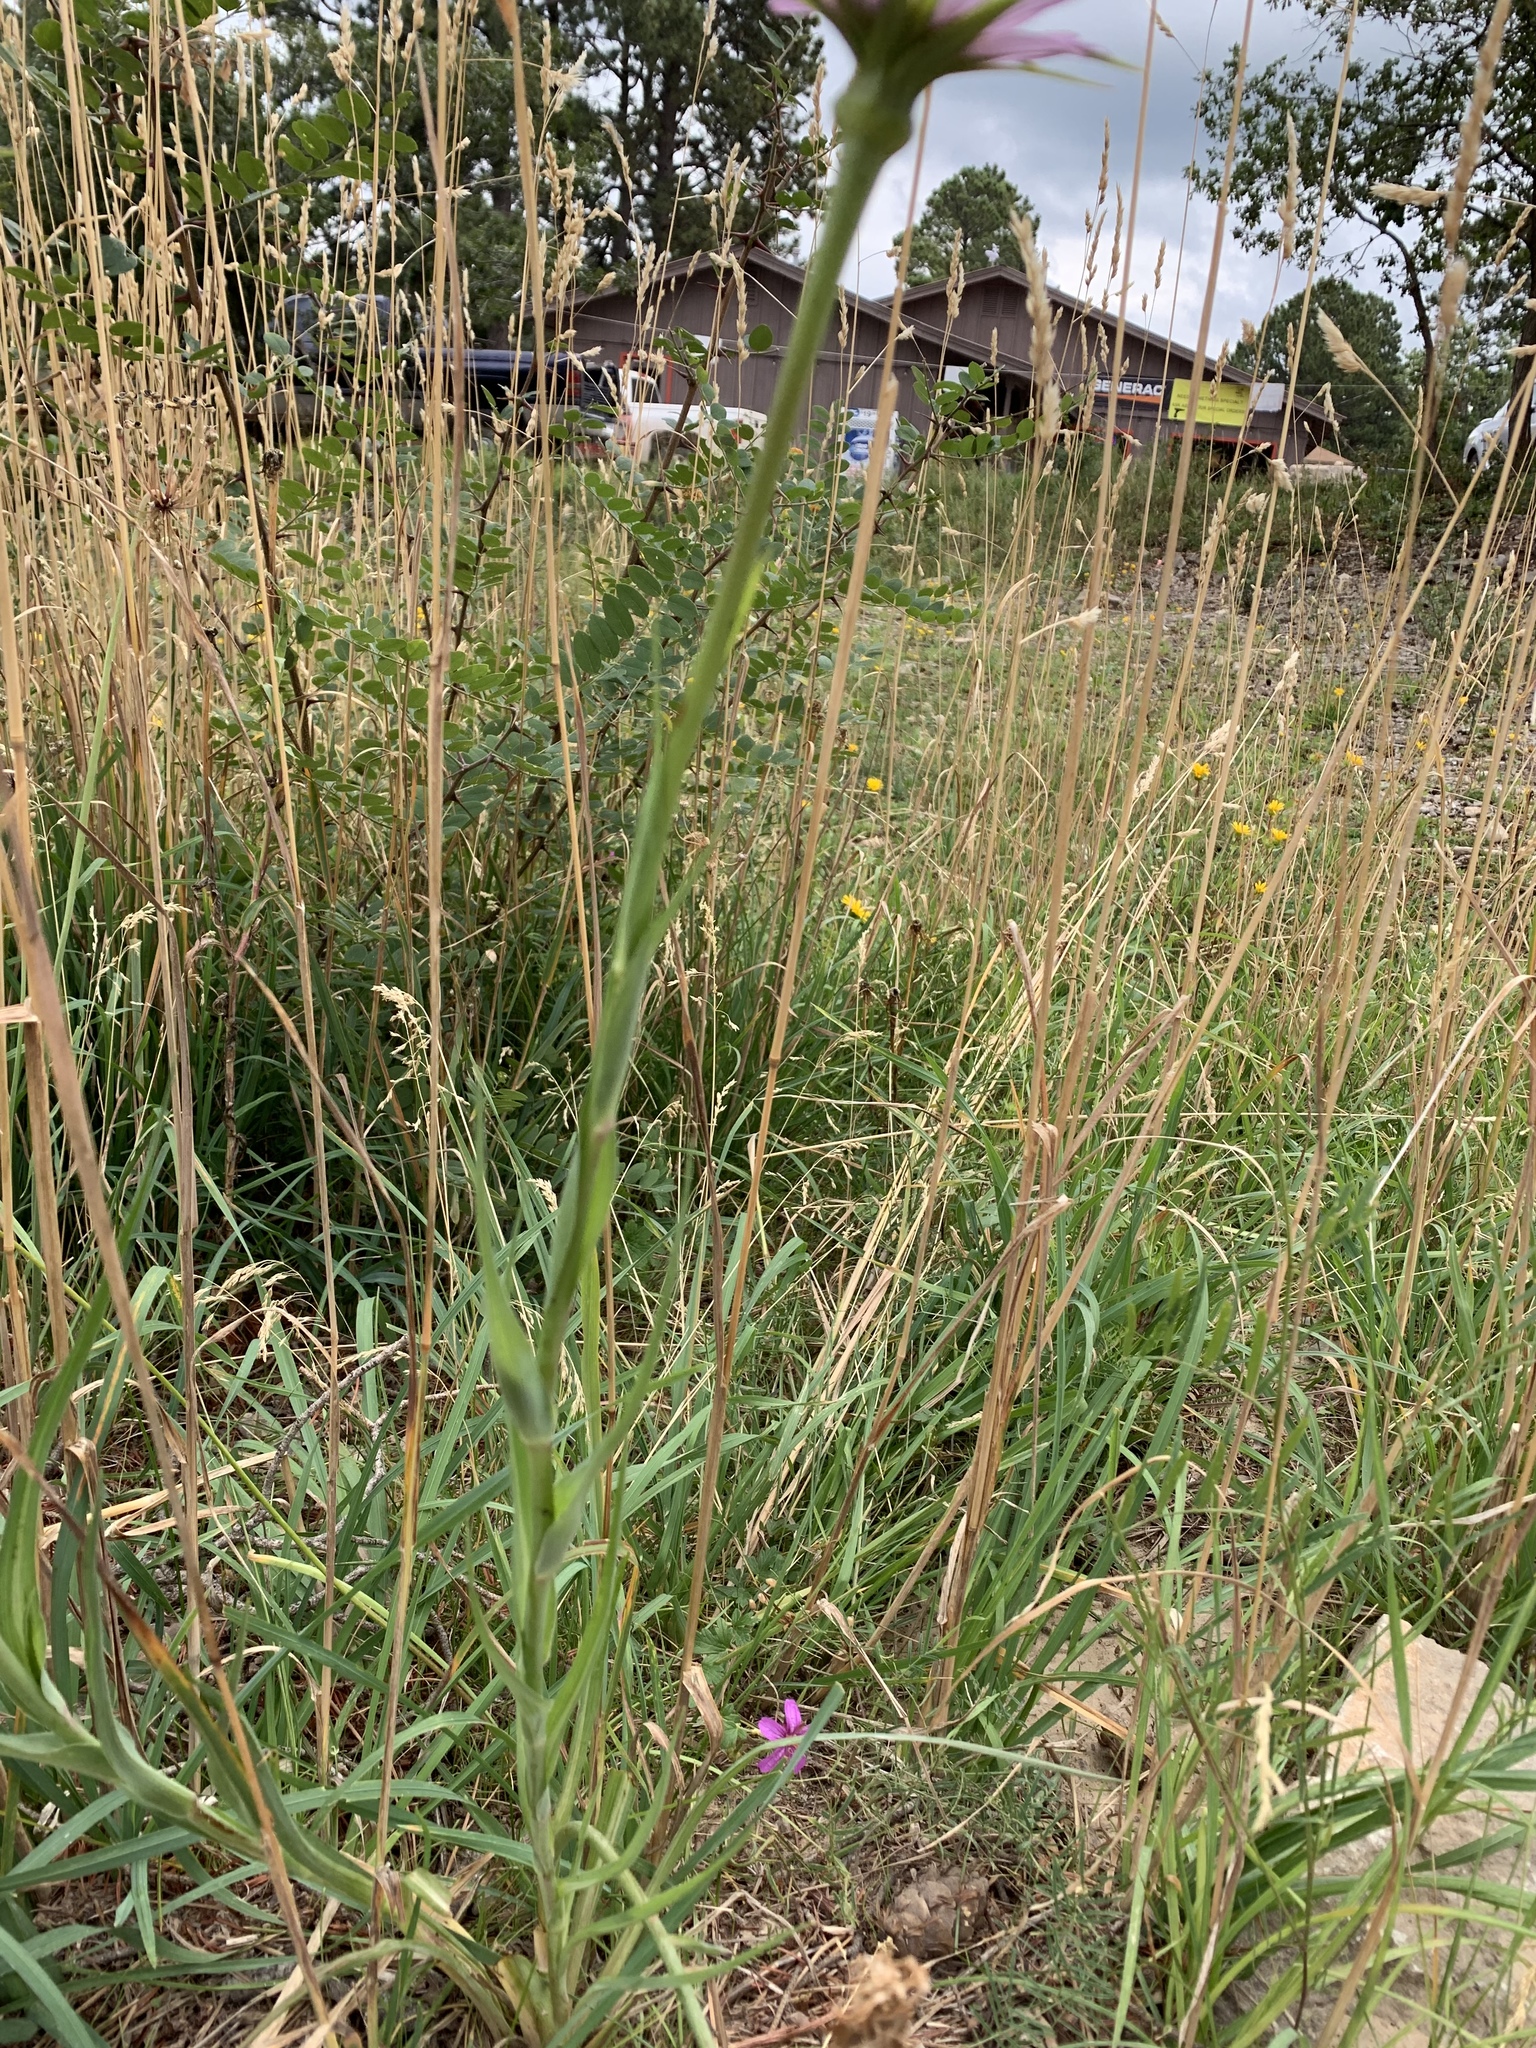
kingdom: Plantae
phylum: Tracheophyta
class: Magnoliopsida
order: Asterales
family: Asteraceae
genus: Tragopogon
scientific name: Tragopogon porrifolius
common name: Salsify
